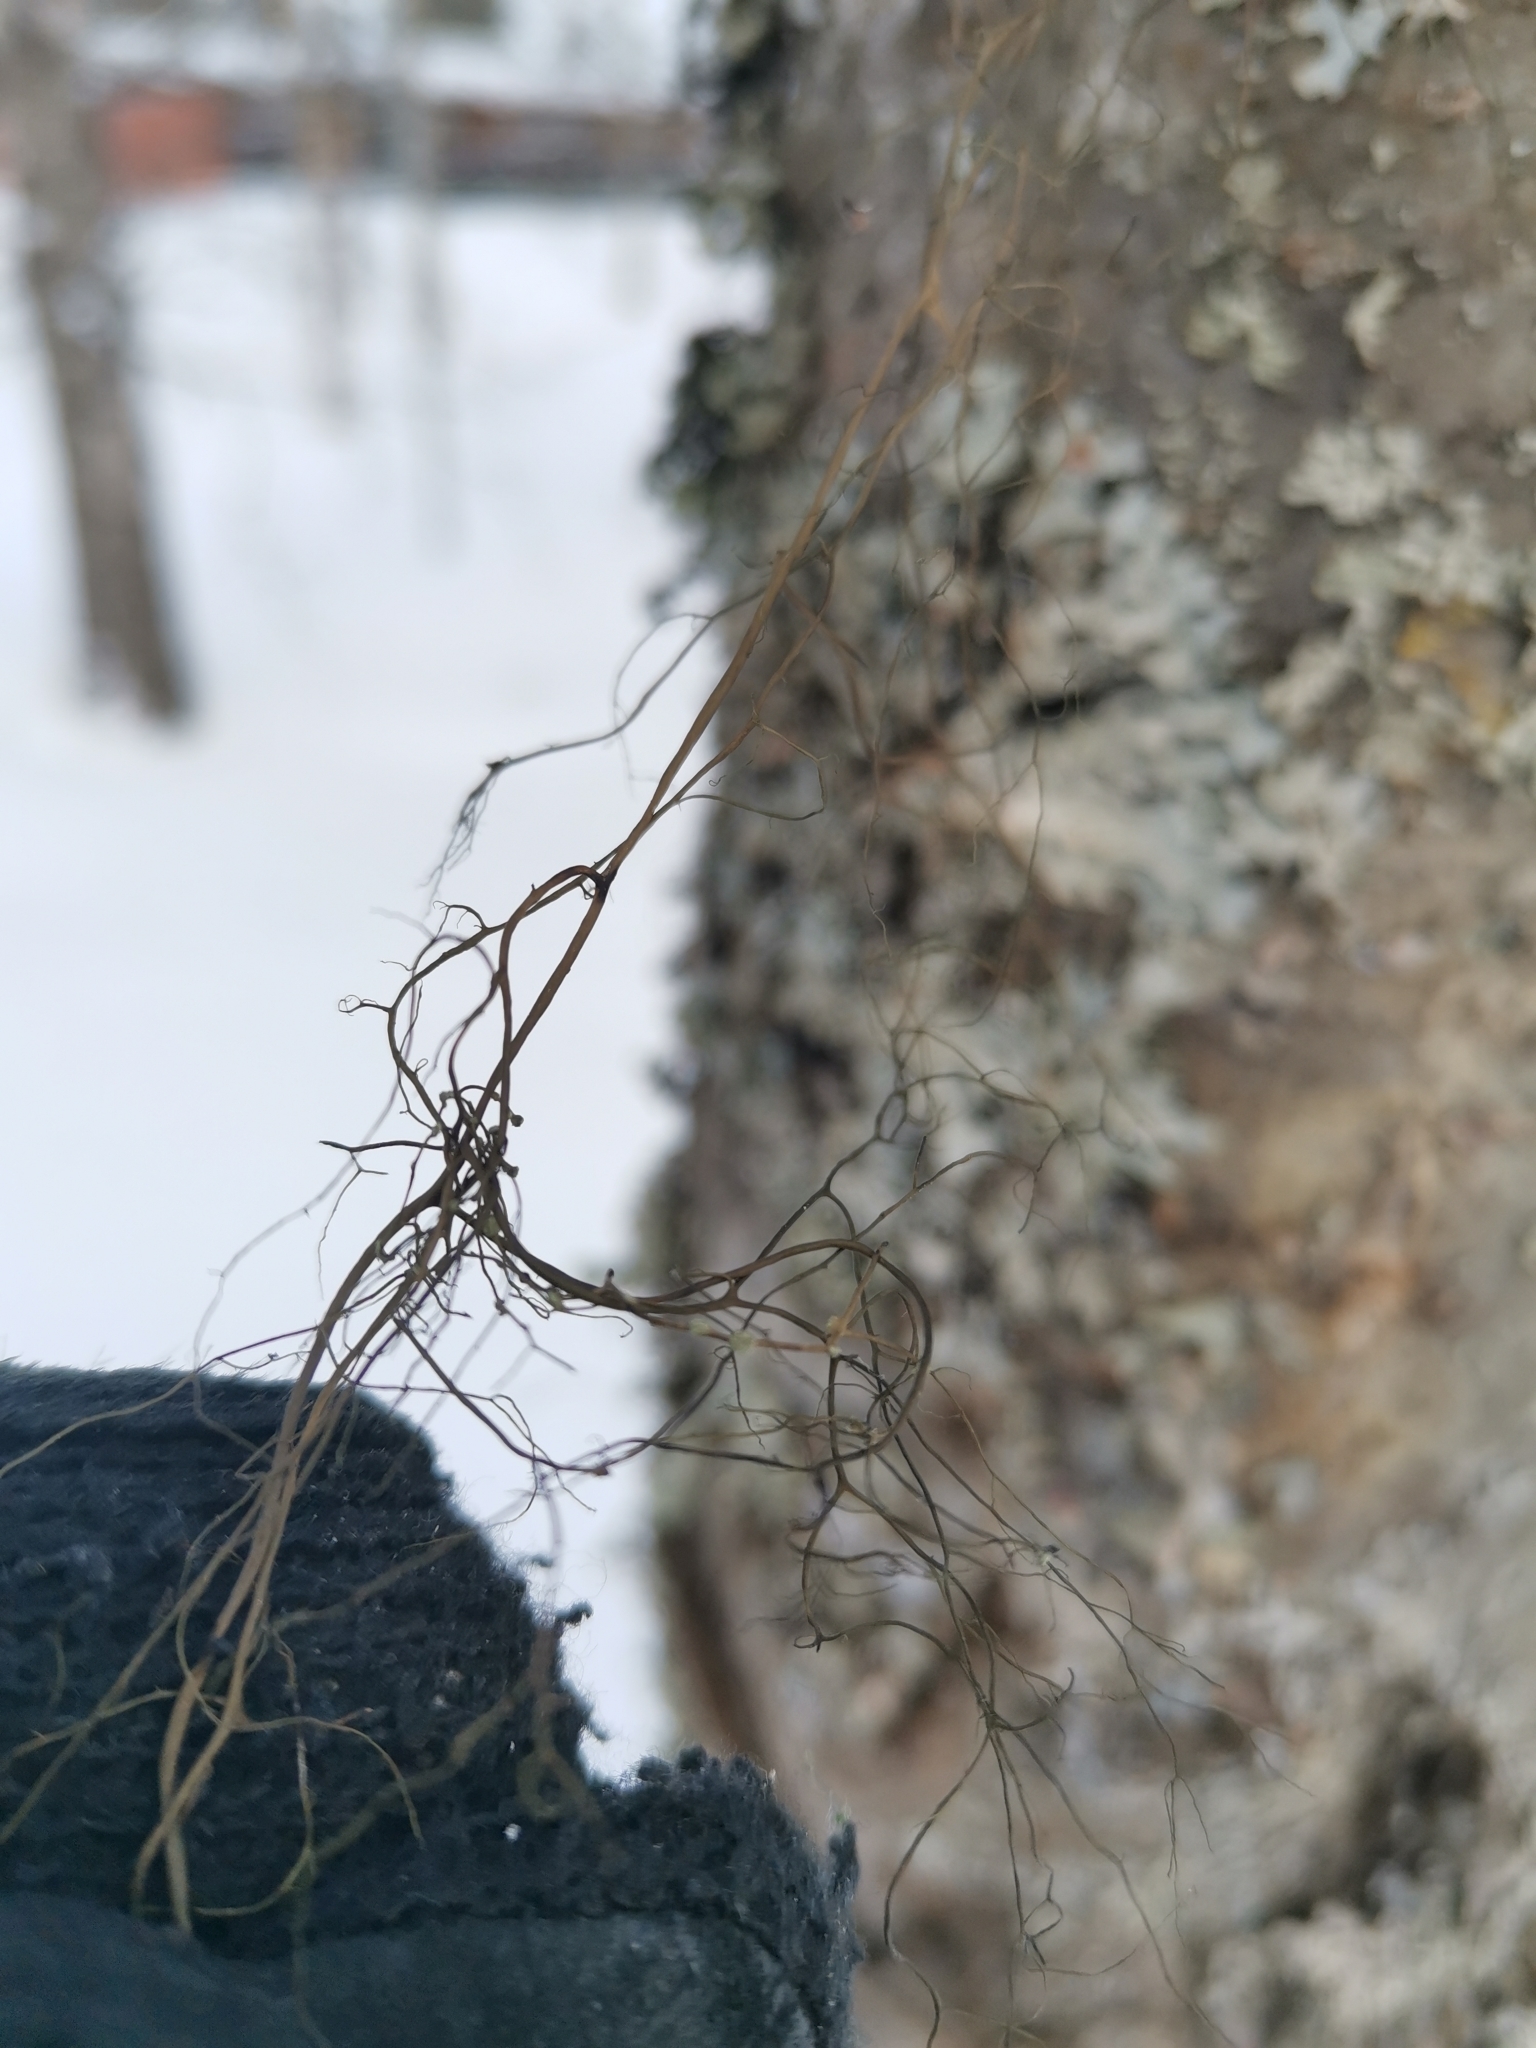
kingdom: Fungi
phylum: Ascomycota
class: Lecanoromycetes
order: Lecanorales
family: Parmeliaceae
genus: Bryoria
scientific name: Bryoria fuscescens
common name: Pale-footed horsehair lichen
